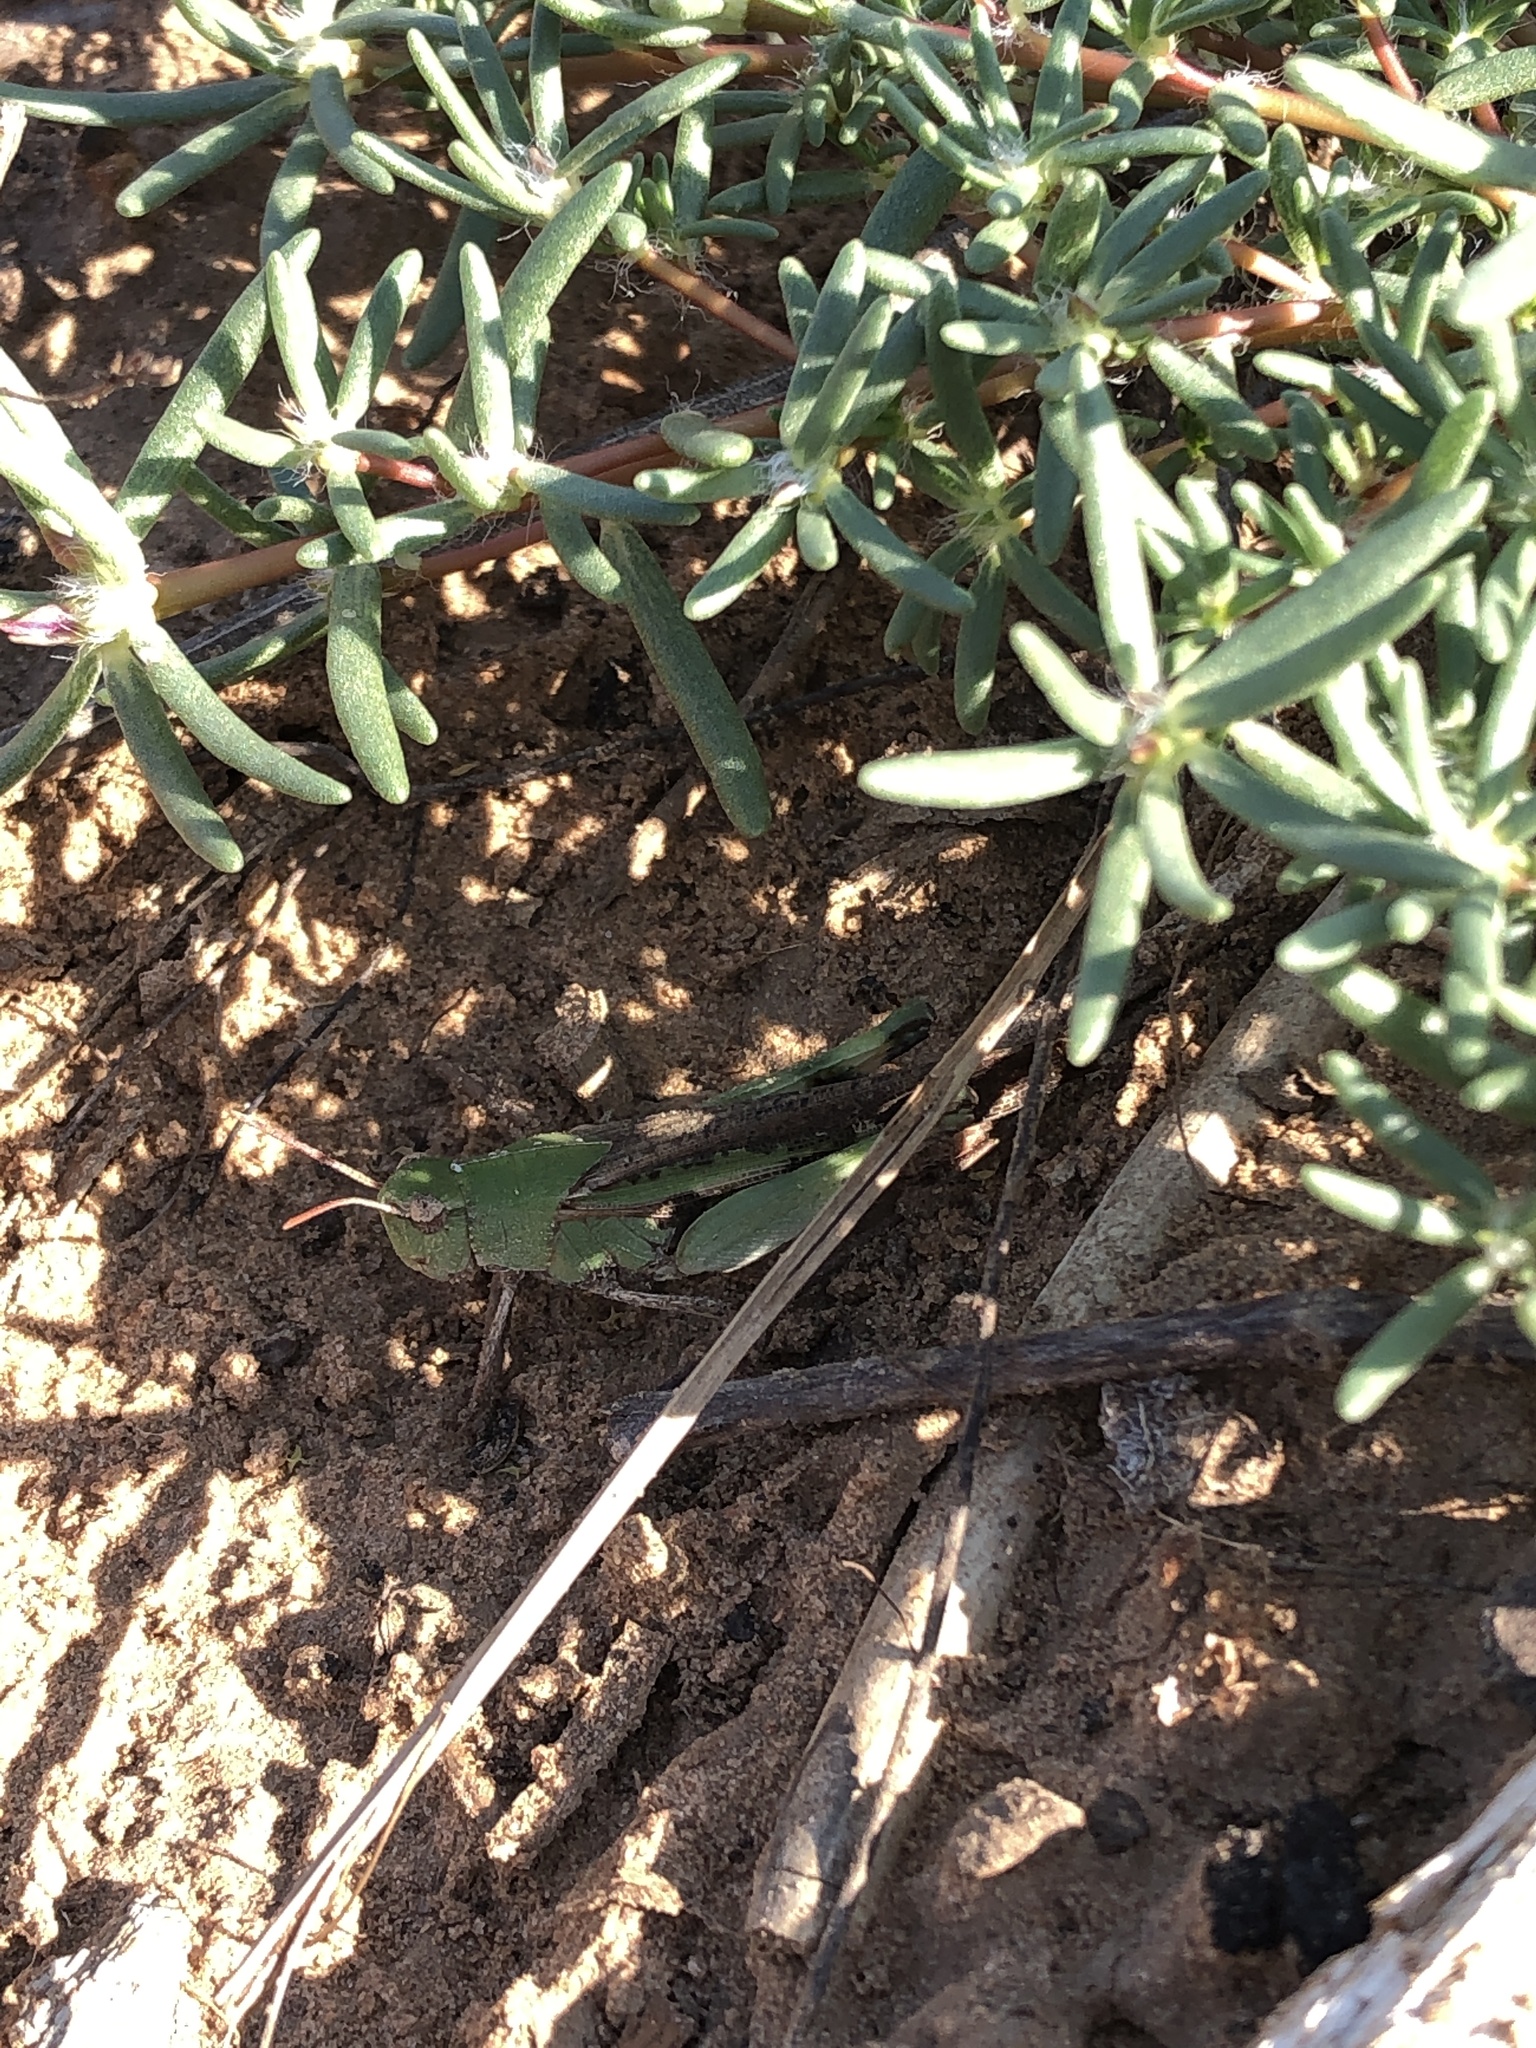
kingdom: Animalia
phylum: Arthropoda
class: Insecta
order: Orthoptera
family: Acrididae
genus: Chortophaga
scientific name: Chortophaga viridifasciata
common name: Green-striped grasshopper
